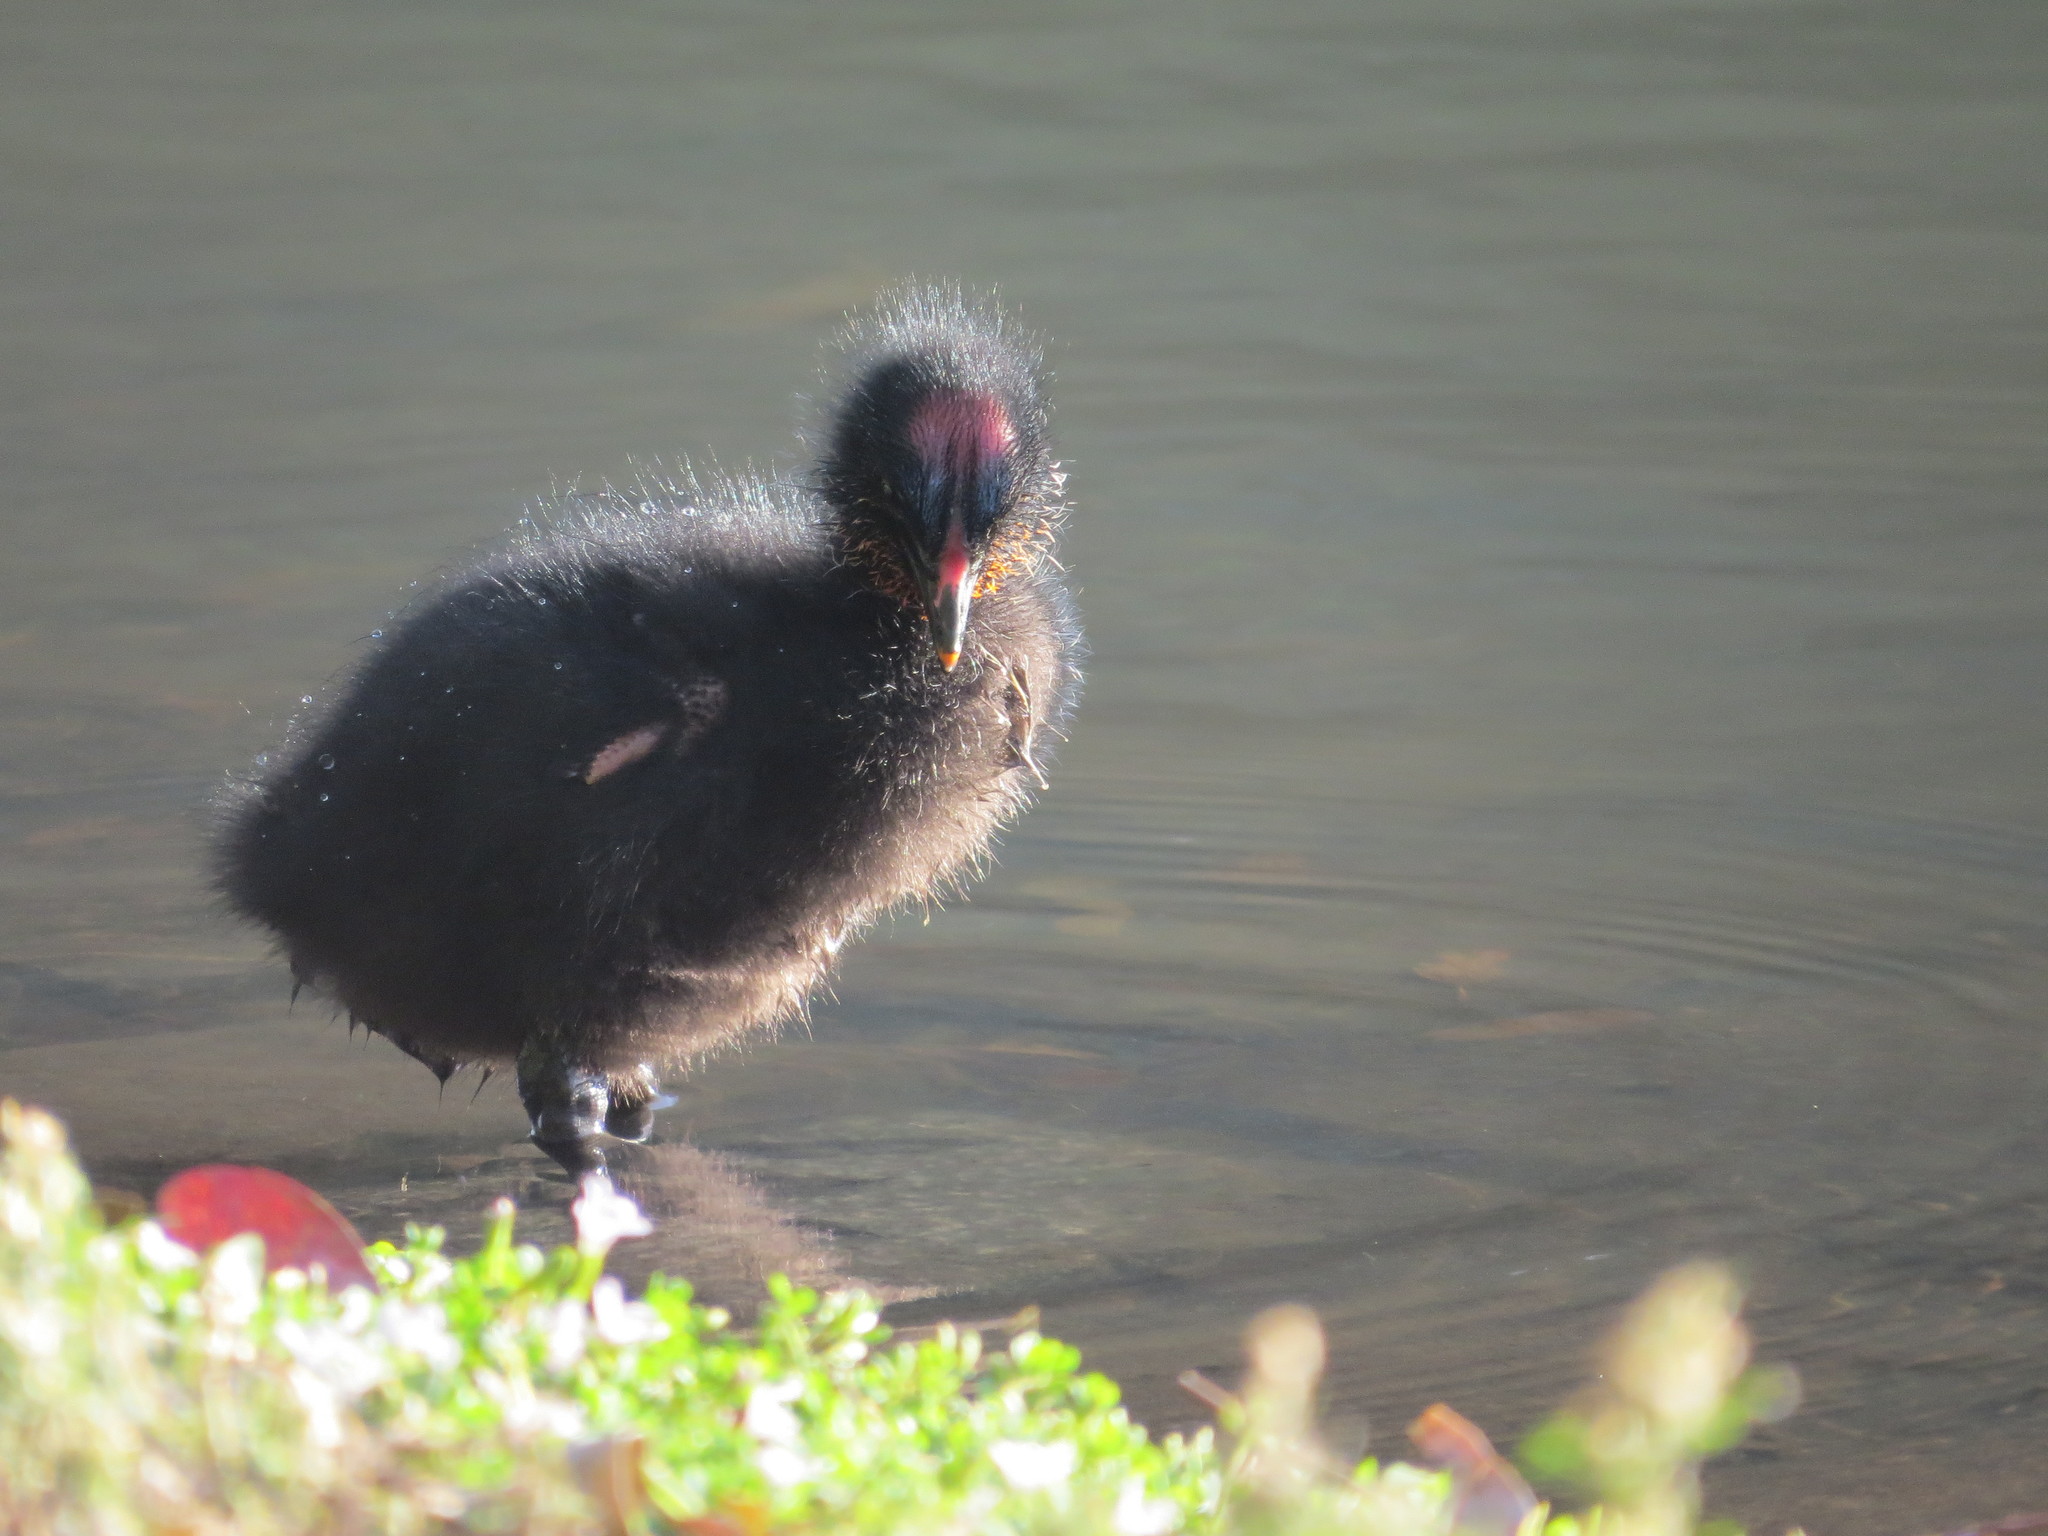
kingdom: Animalia
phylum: Chordata
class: Aves
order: Gruiformes
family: Rallidae
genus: Fulica
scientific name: Fulica armillata
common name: Red-gartered coot
